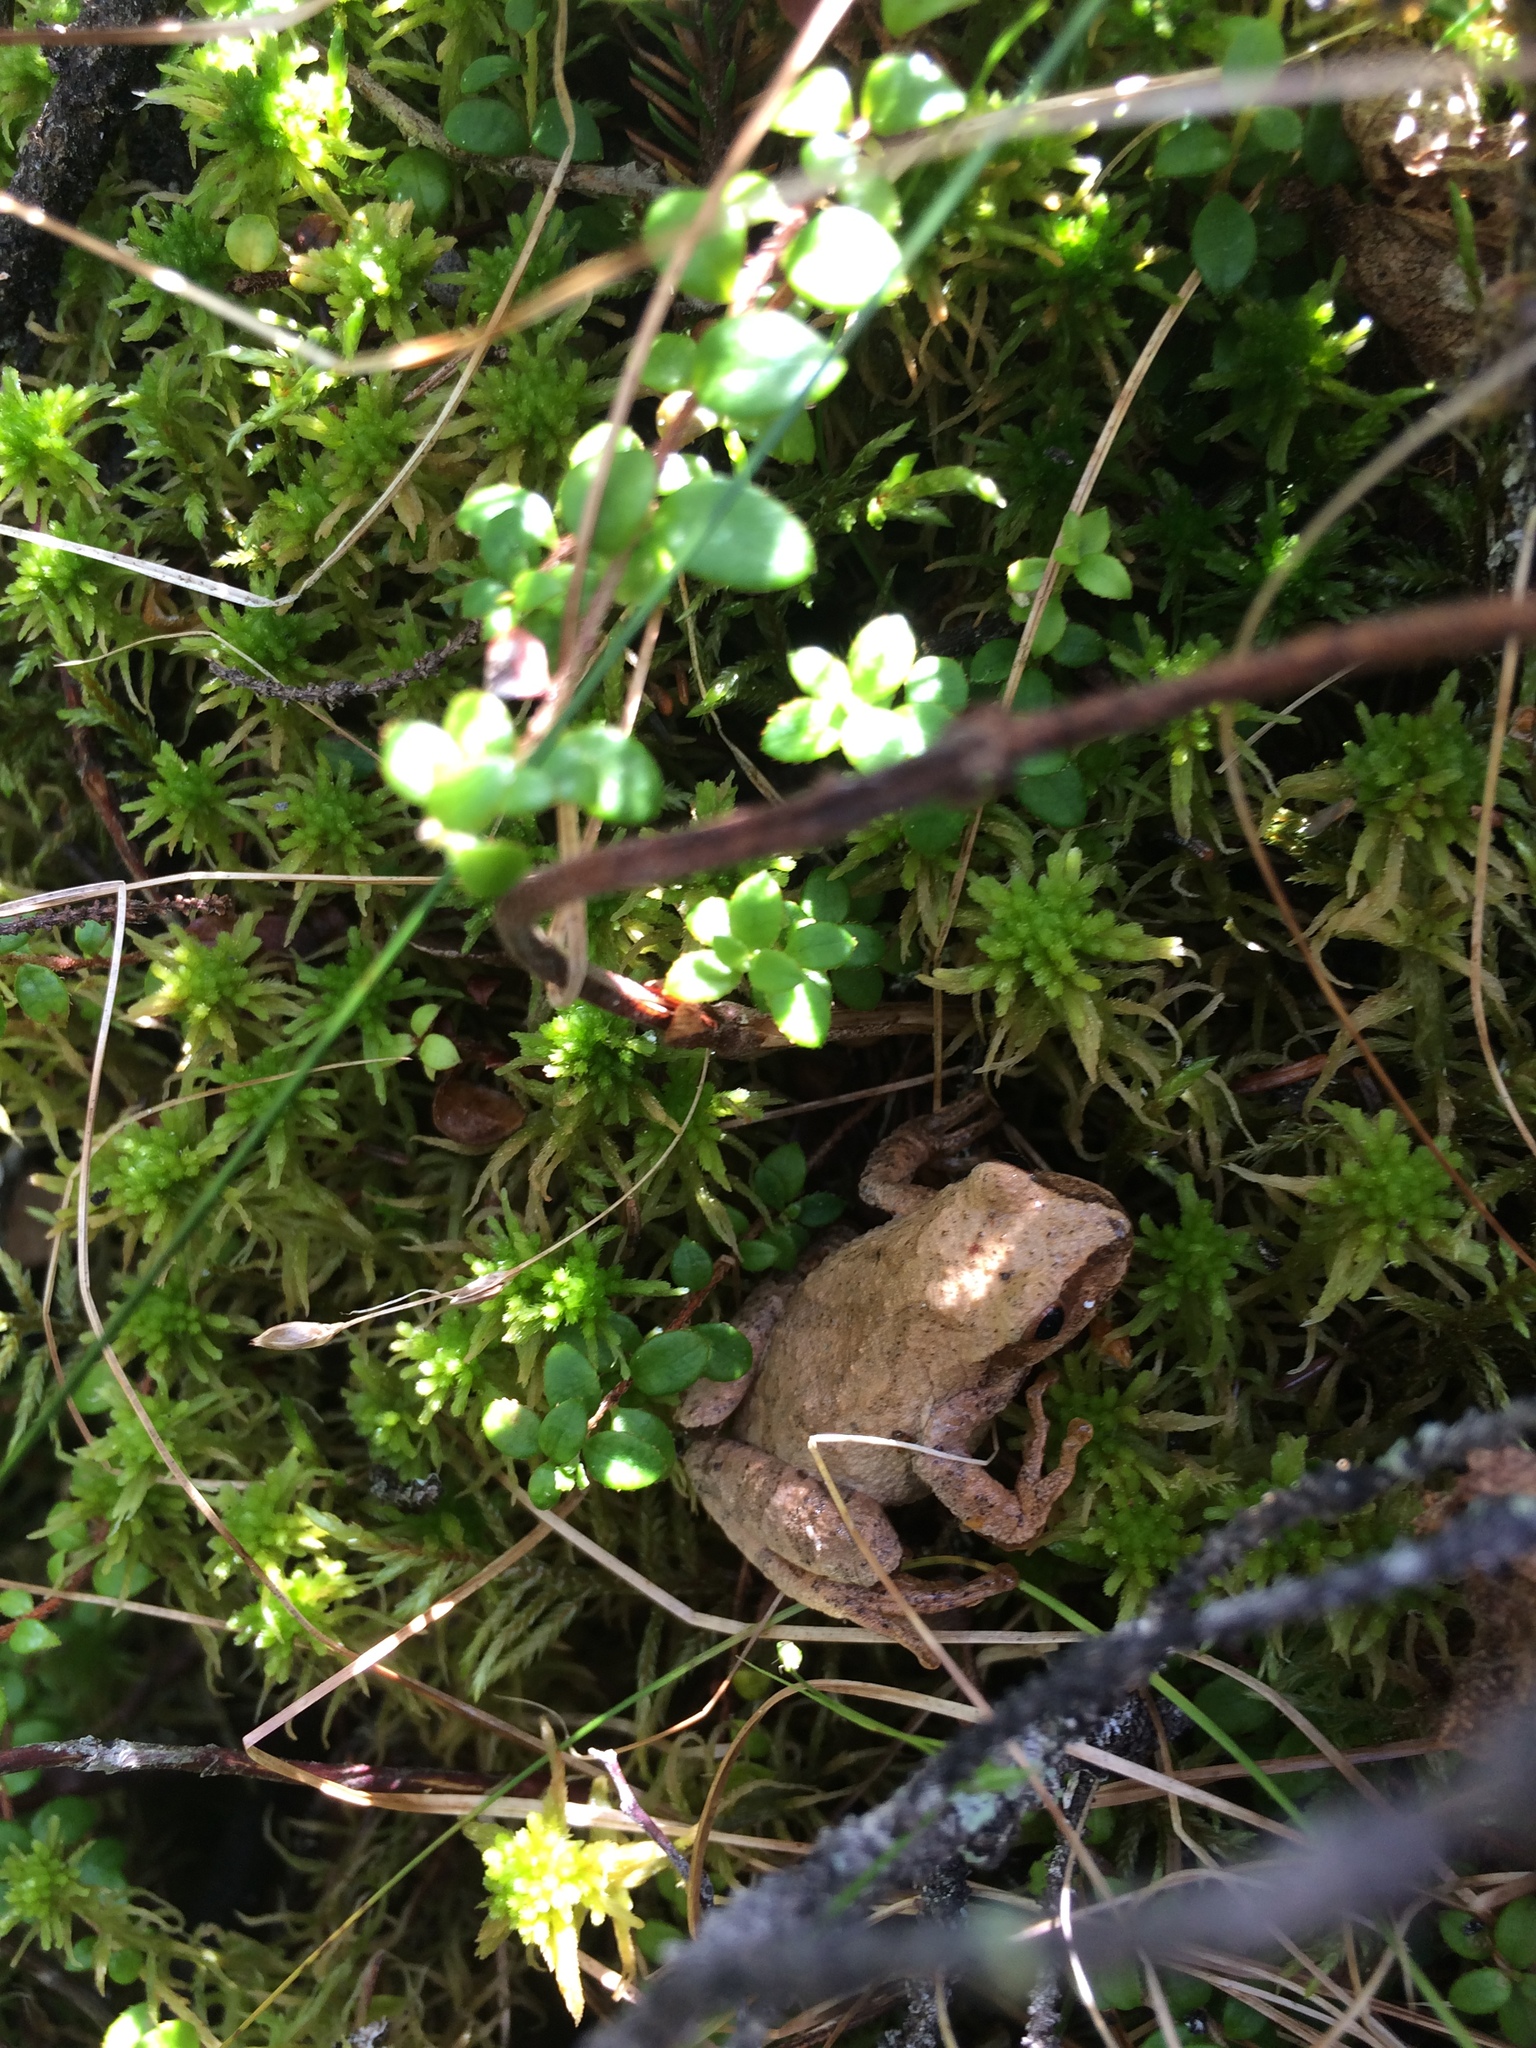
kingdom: Animalia
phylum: Chordata
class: Amphibia
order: Anura
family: Hylidae
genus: Pseudacris
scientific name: Pseudacris crucifer
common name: Spring peeper
